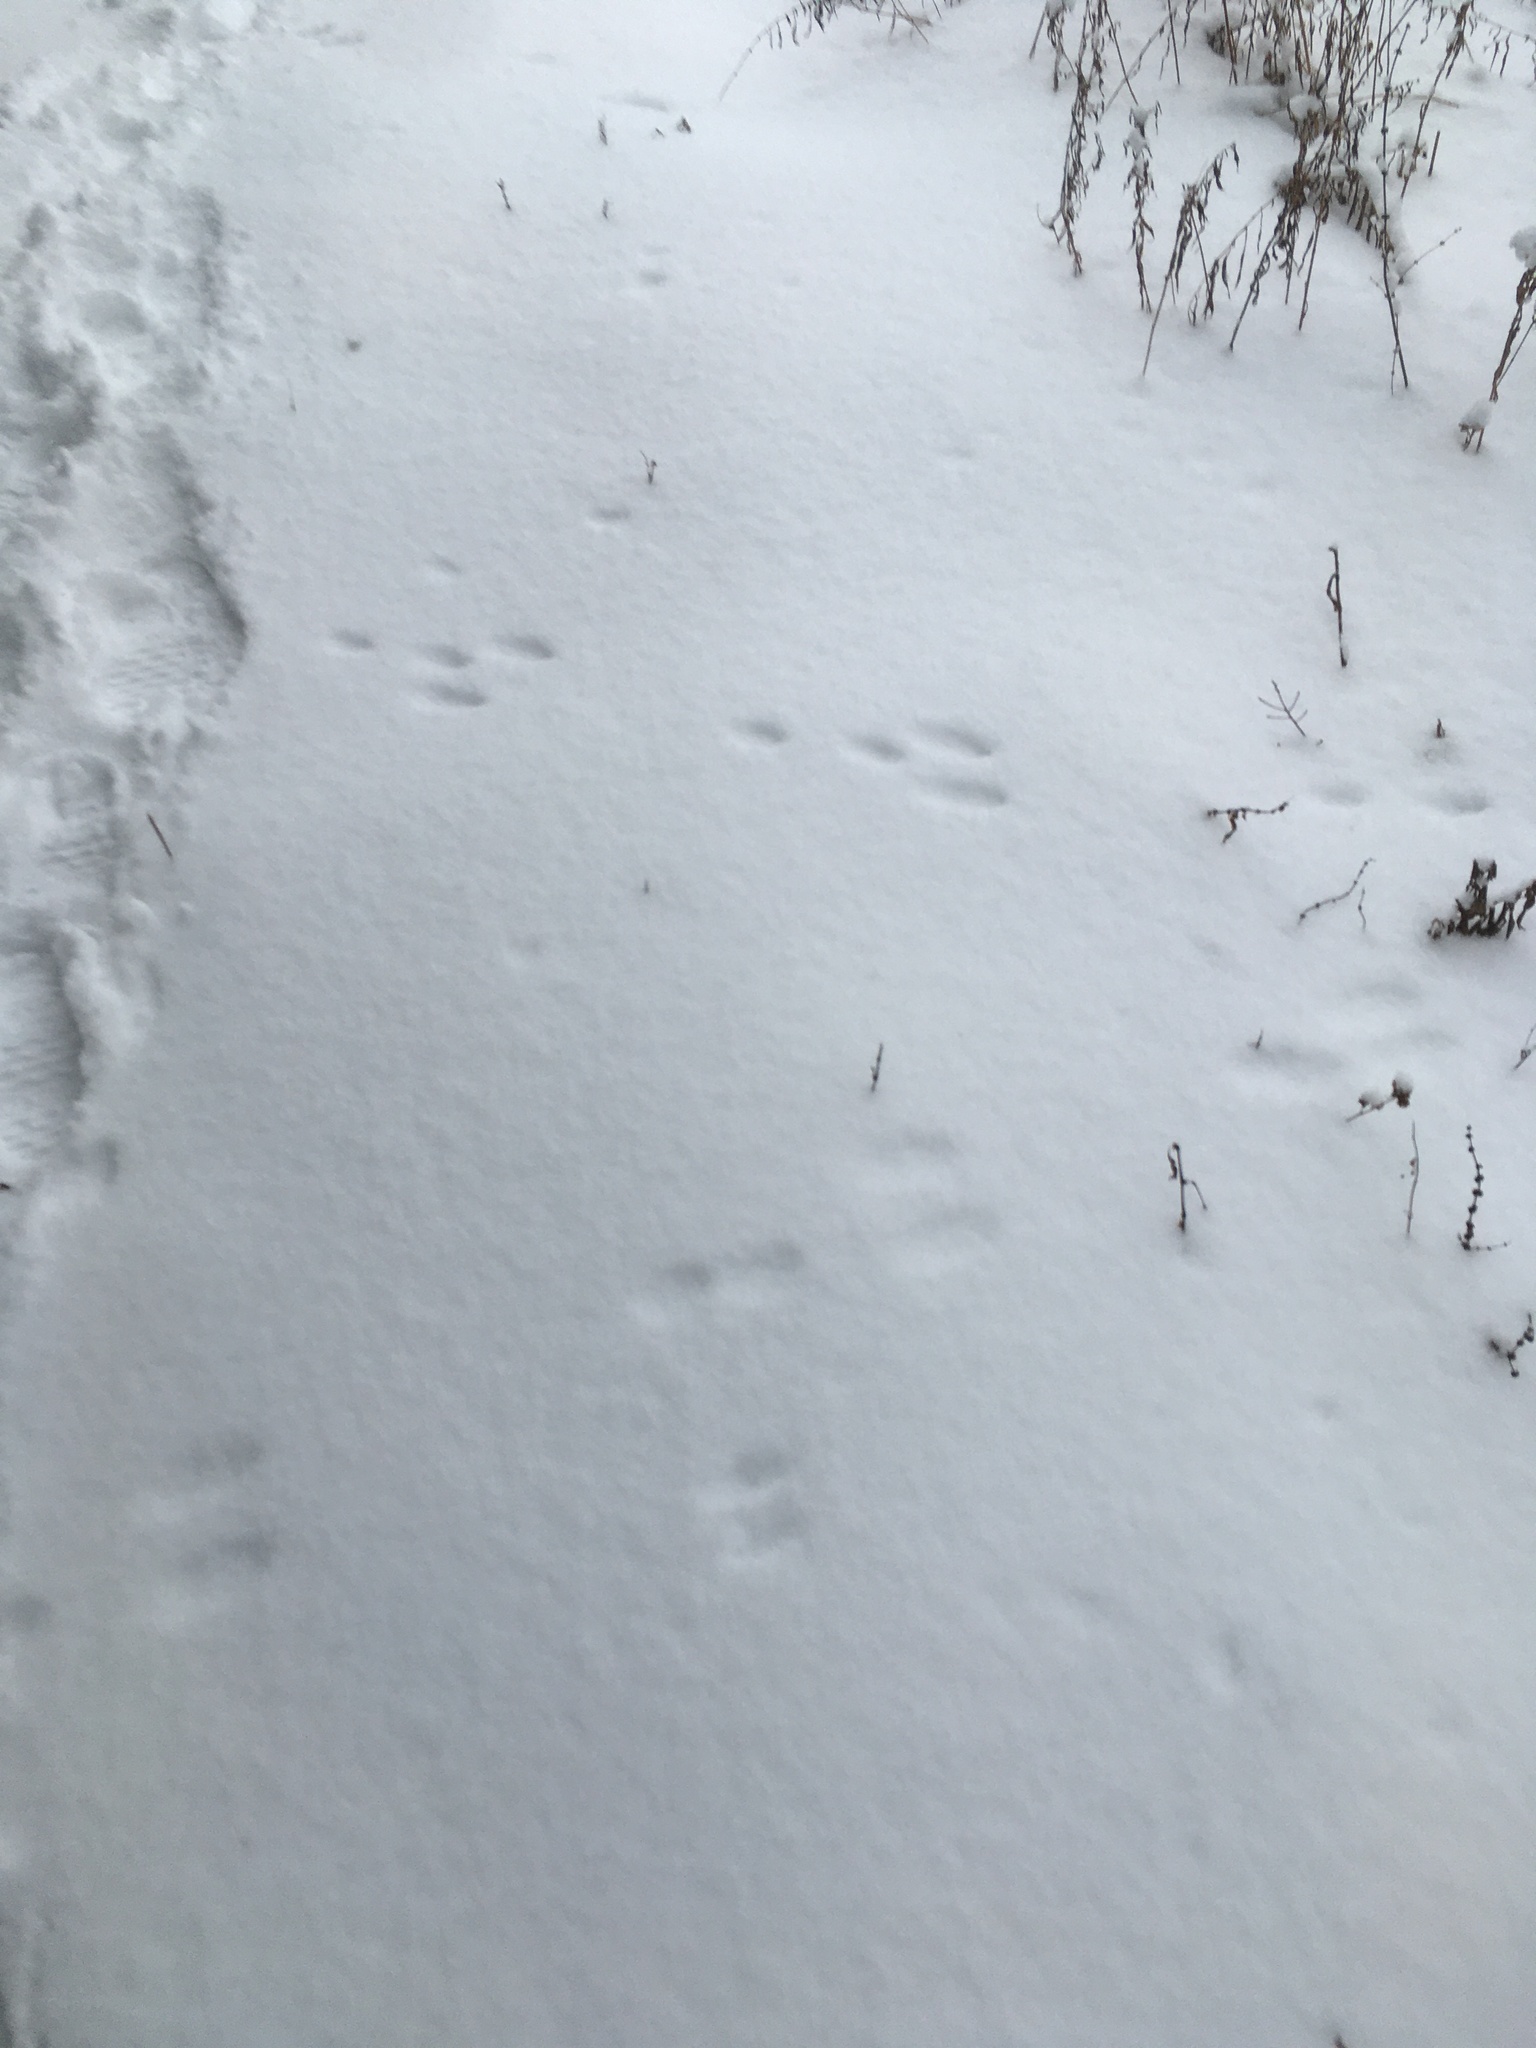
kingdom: Animalia
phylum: Chordata
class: Mammalia
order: Lagomorpha
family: Leporidae
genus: Lepus
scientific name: Lepus americanus
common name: Snowshoe hare
